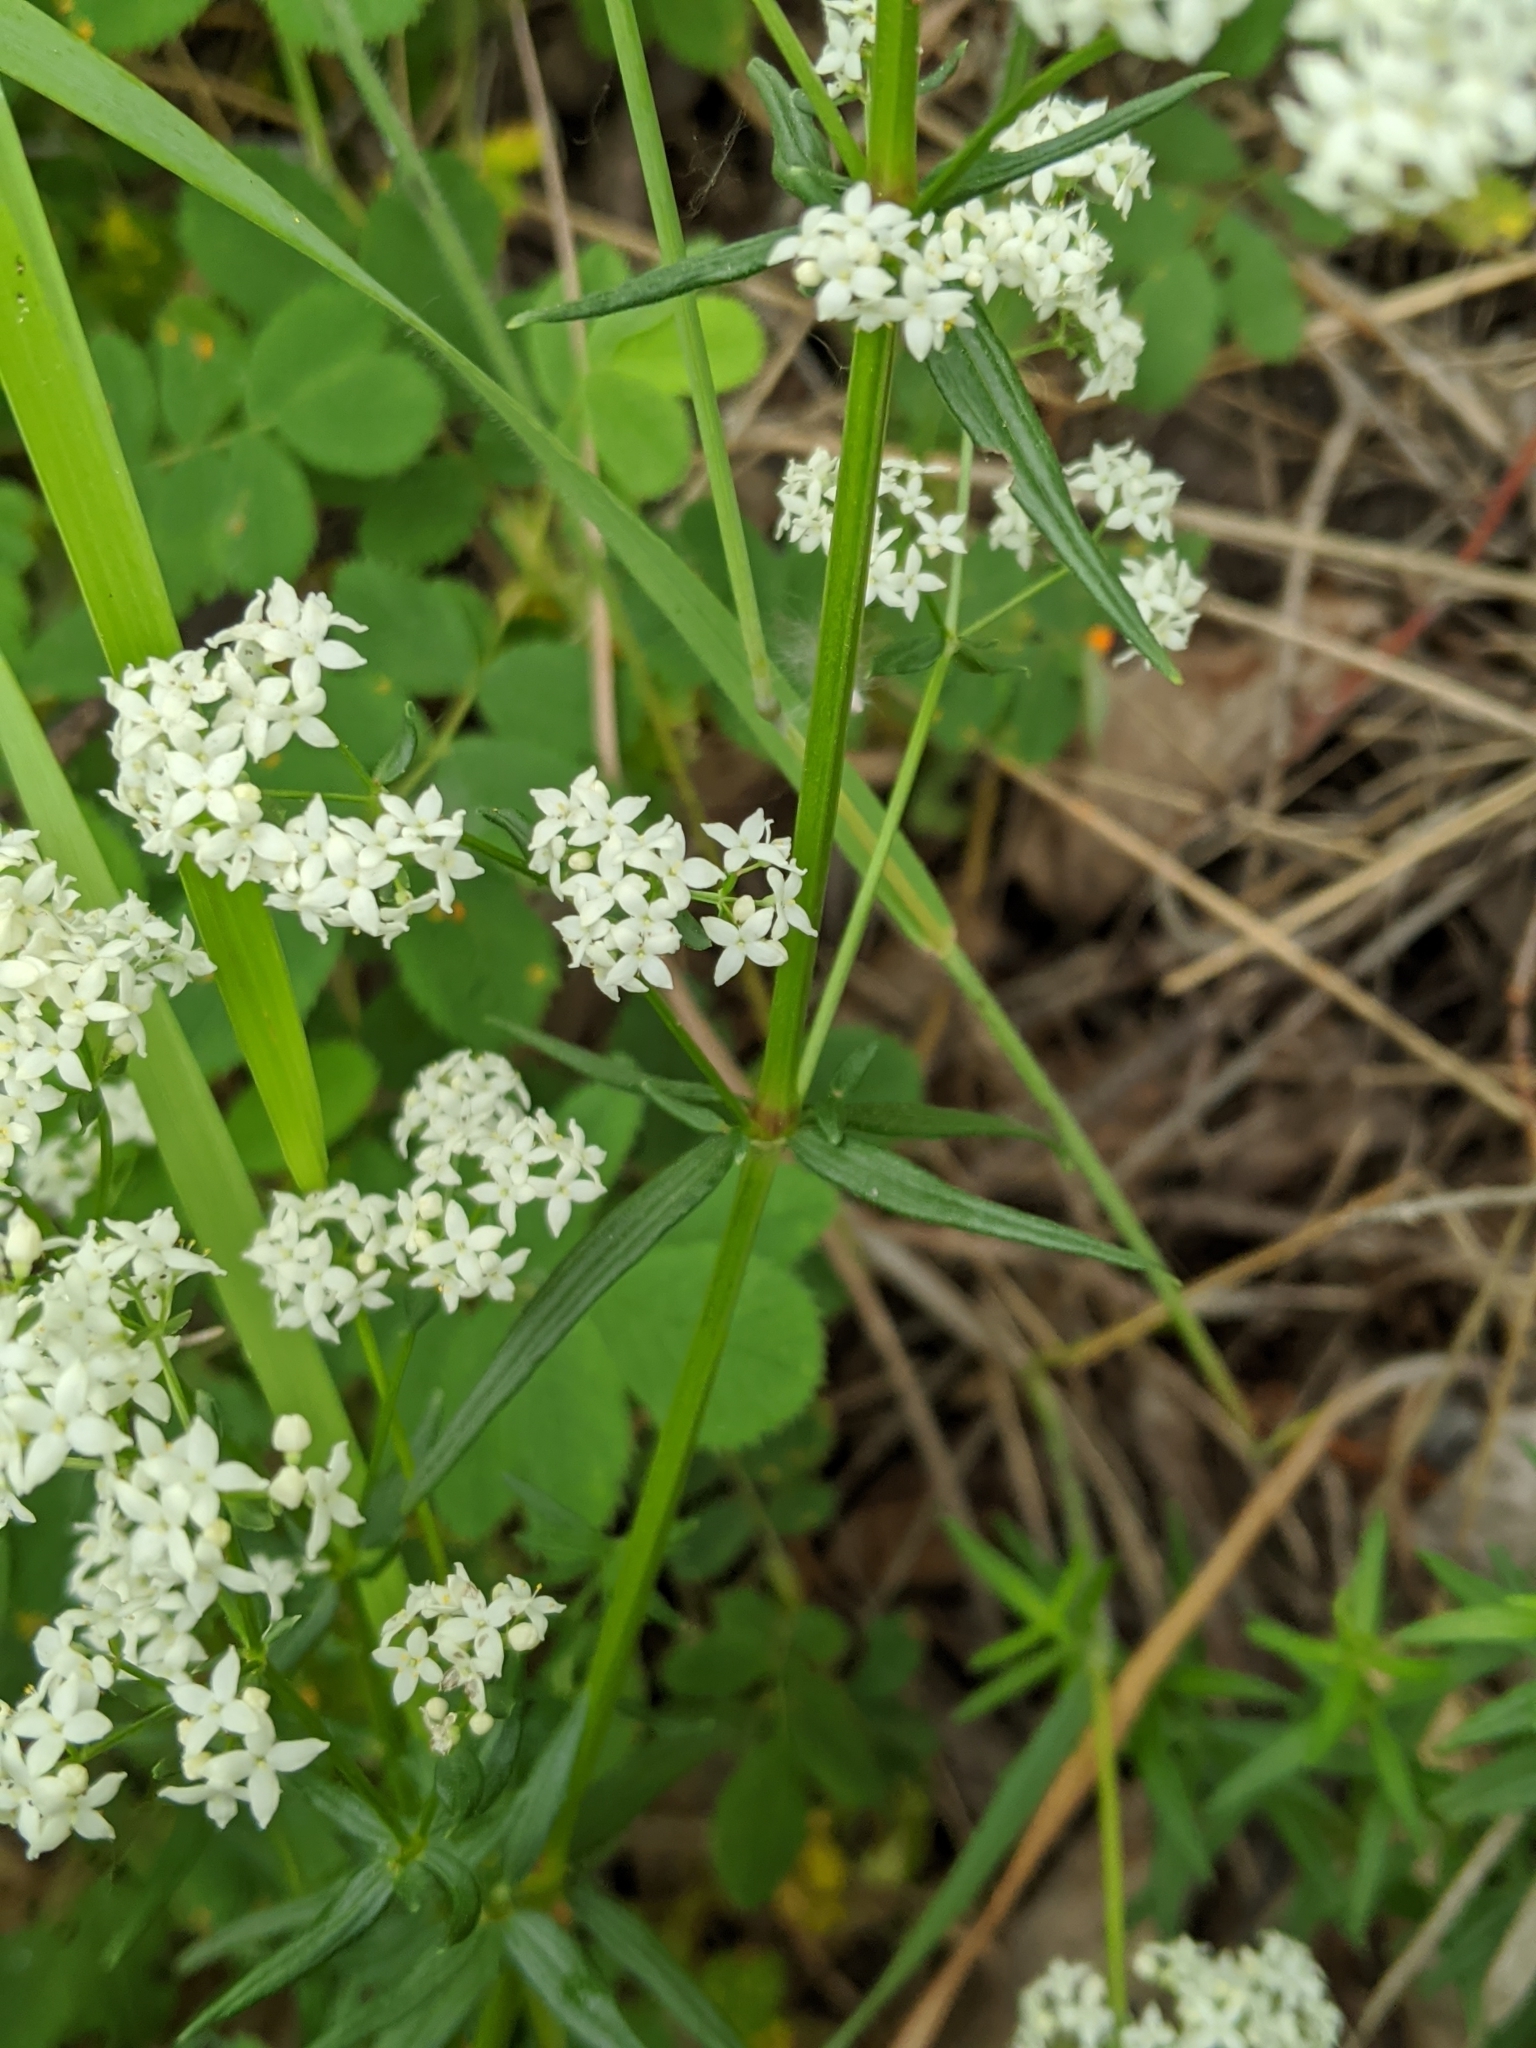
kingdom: Plantae
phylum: Tracheophyta
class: Magnoliopsida
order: Gentianales
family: Rubiaceae
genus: Galium
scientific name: Galium boreale
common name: Northern bedstraw
